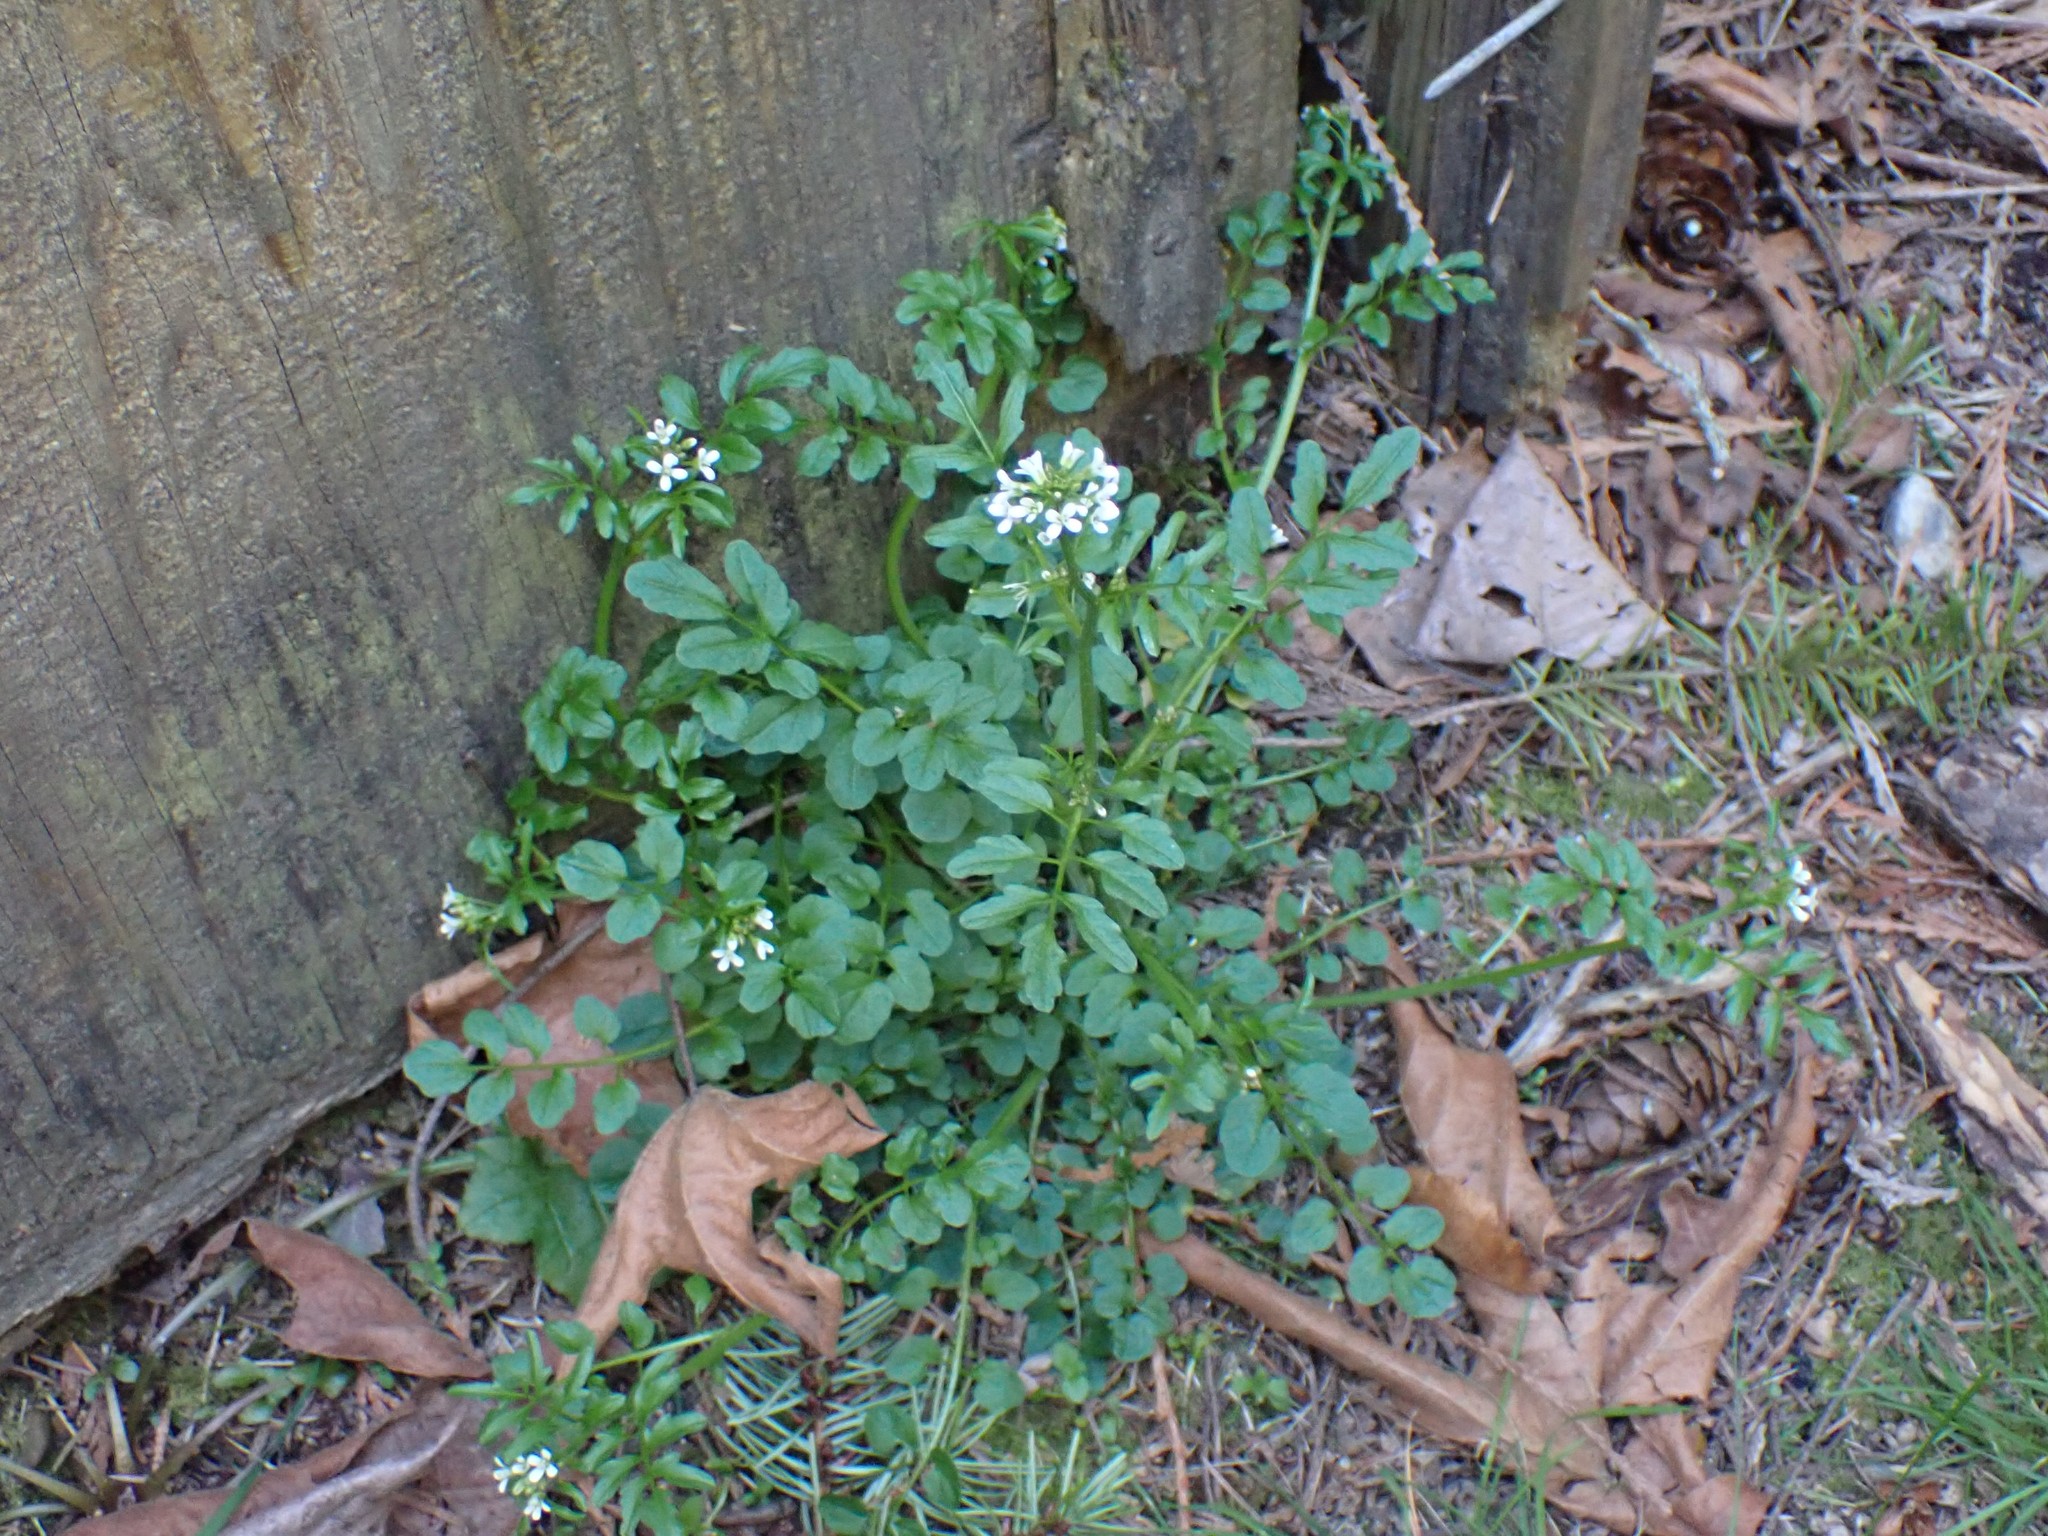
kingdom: Plantae
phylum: Tracheophyta
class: Magnoliopsida
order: Brassicales
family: Brassicaceae
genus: Cardamine
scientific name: Cardamine flexuosa
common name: Woodland bittercress
